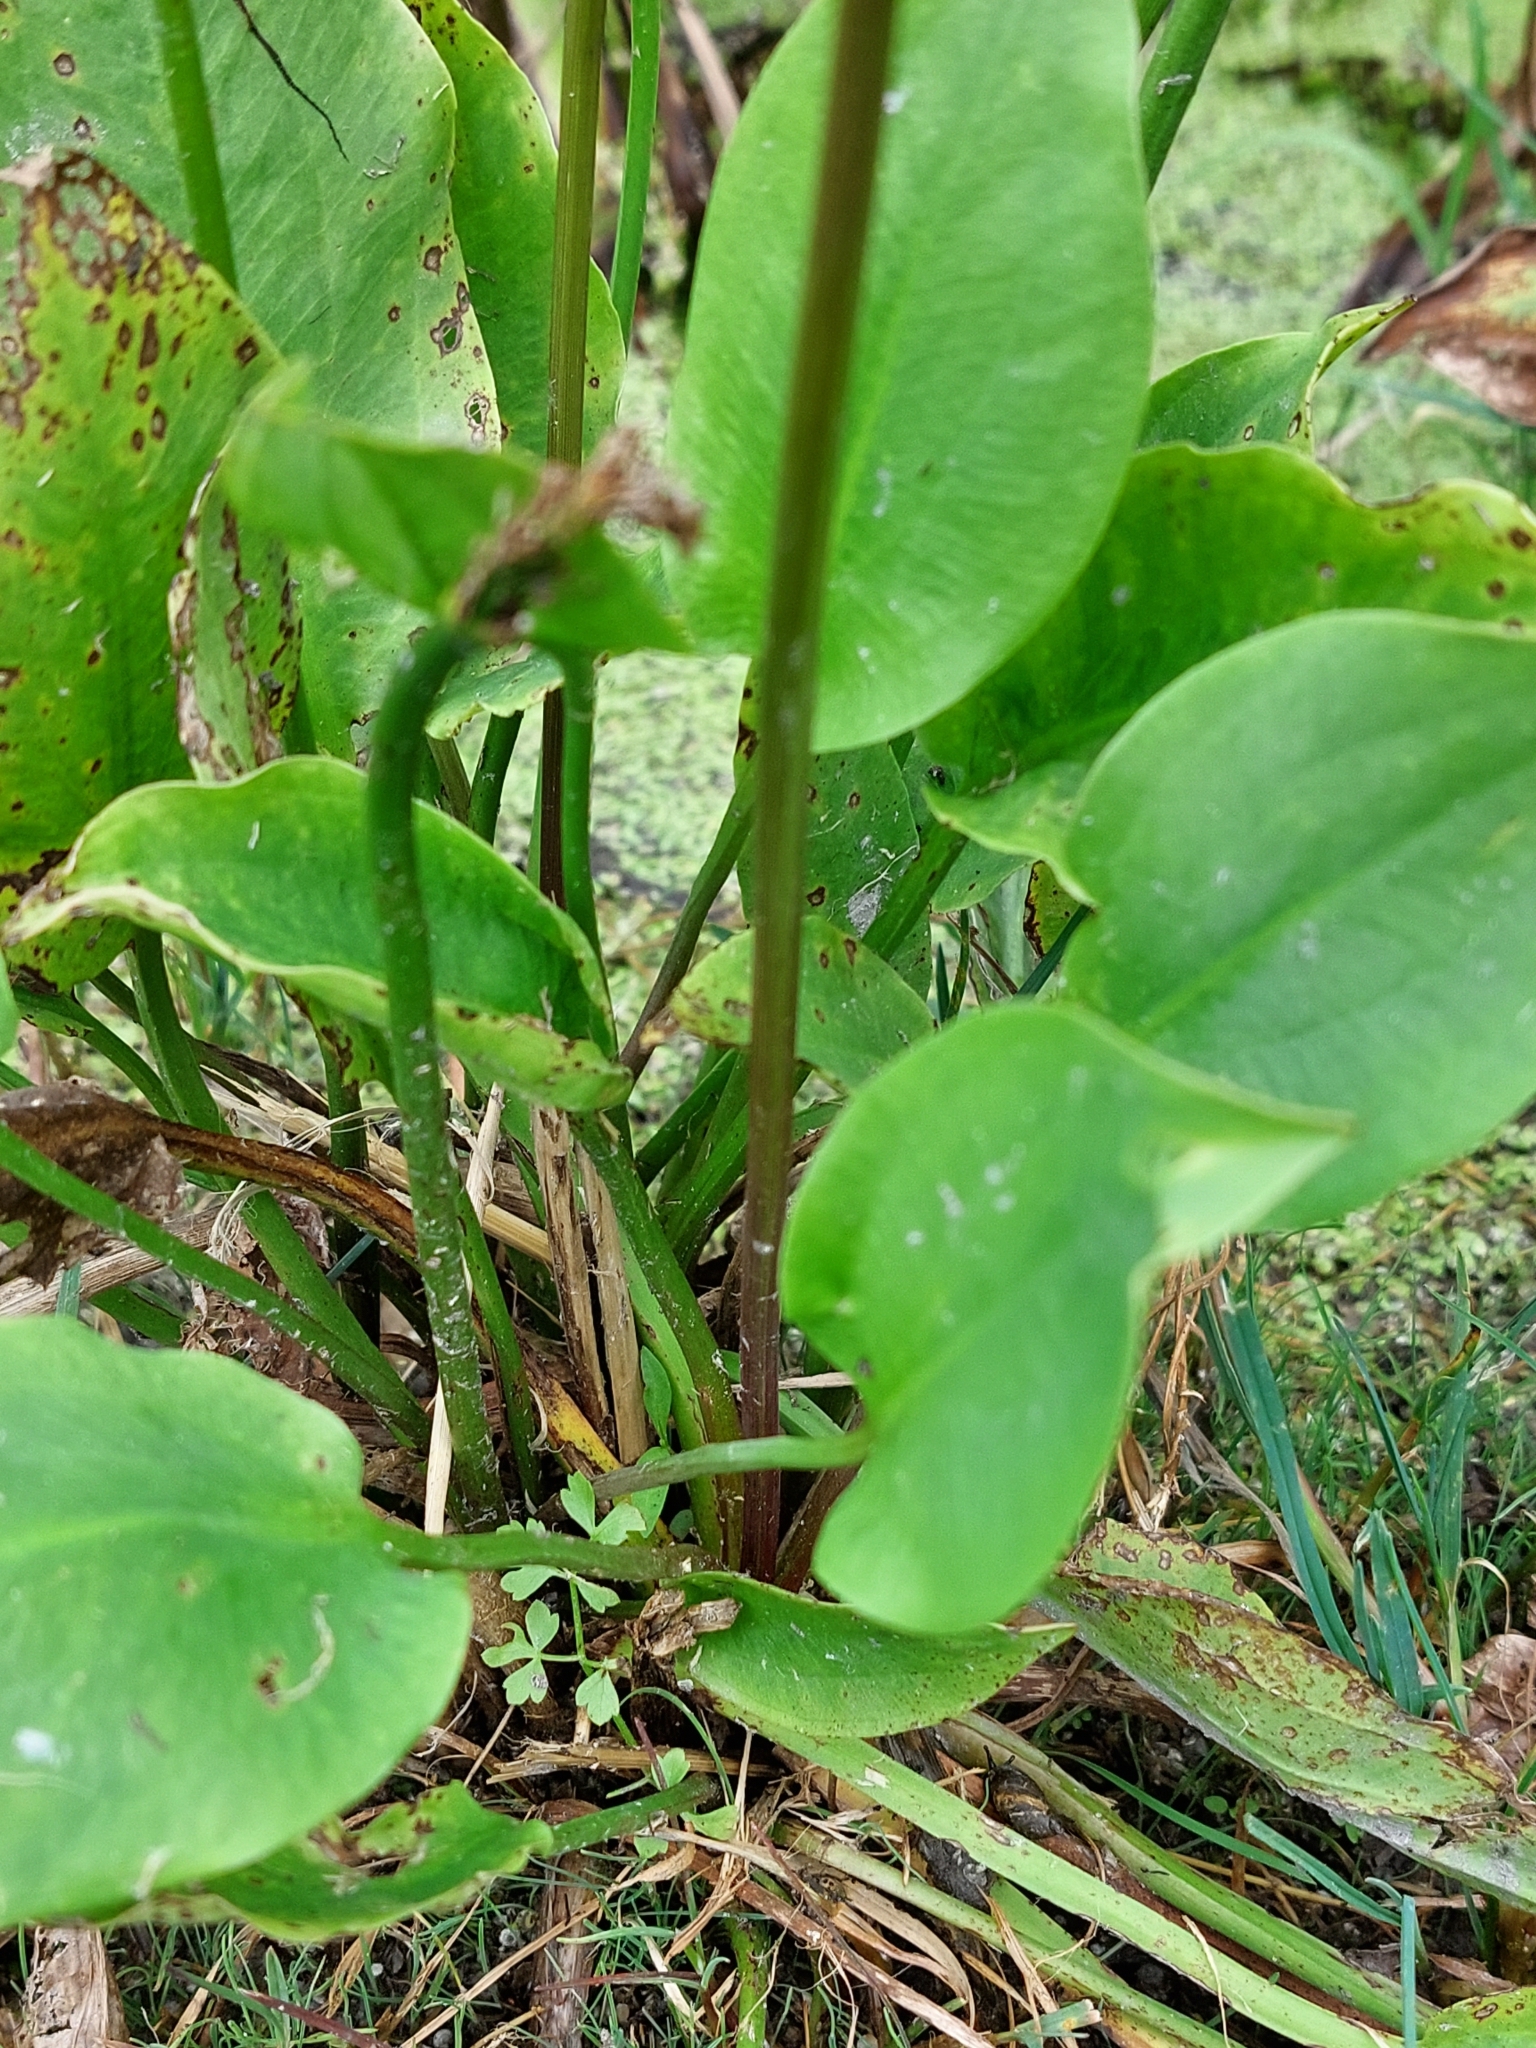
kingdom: Plantae
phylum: Tracheophyta
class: Liliopsida
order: Alismatales
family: Alismataceae
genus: Alisma
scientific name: Alisma plantago-aquatica
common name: Water-plantain
